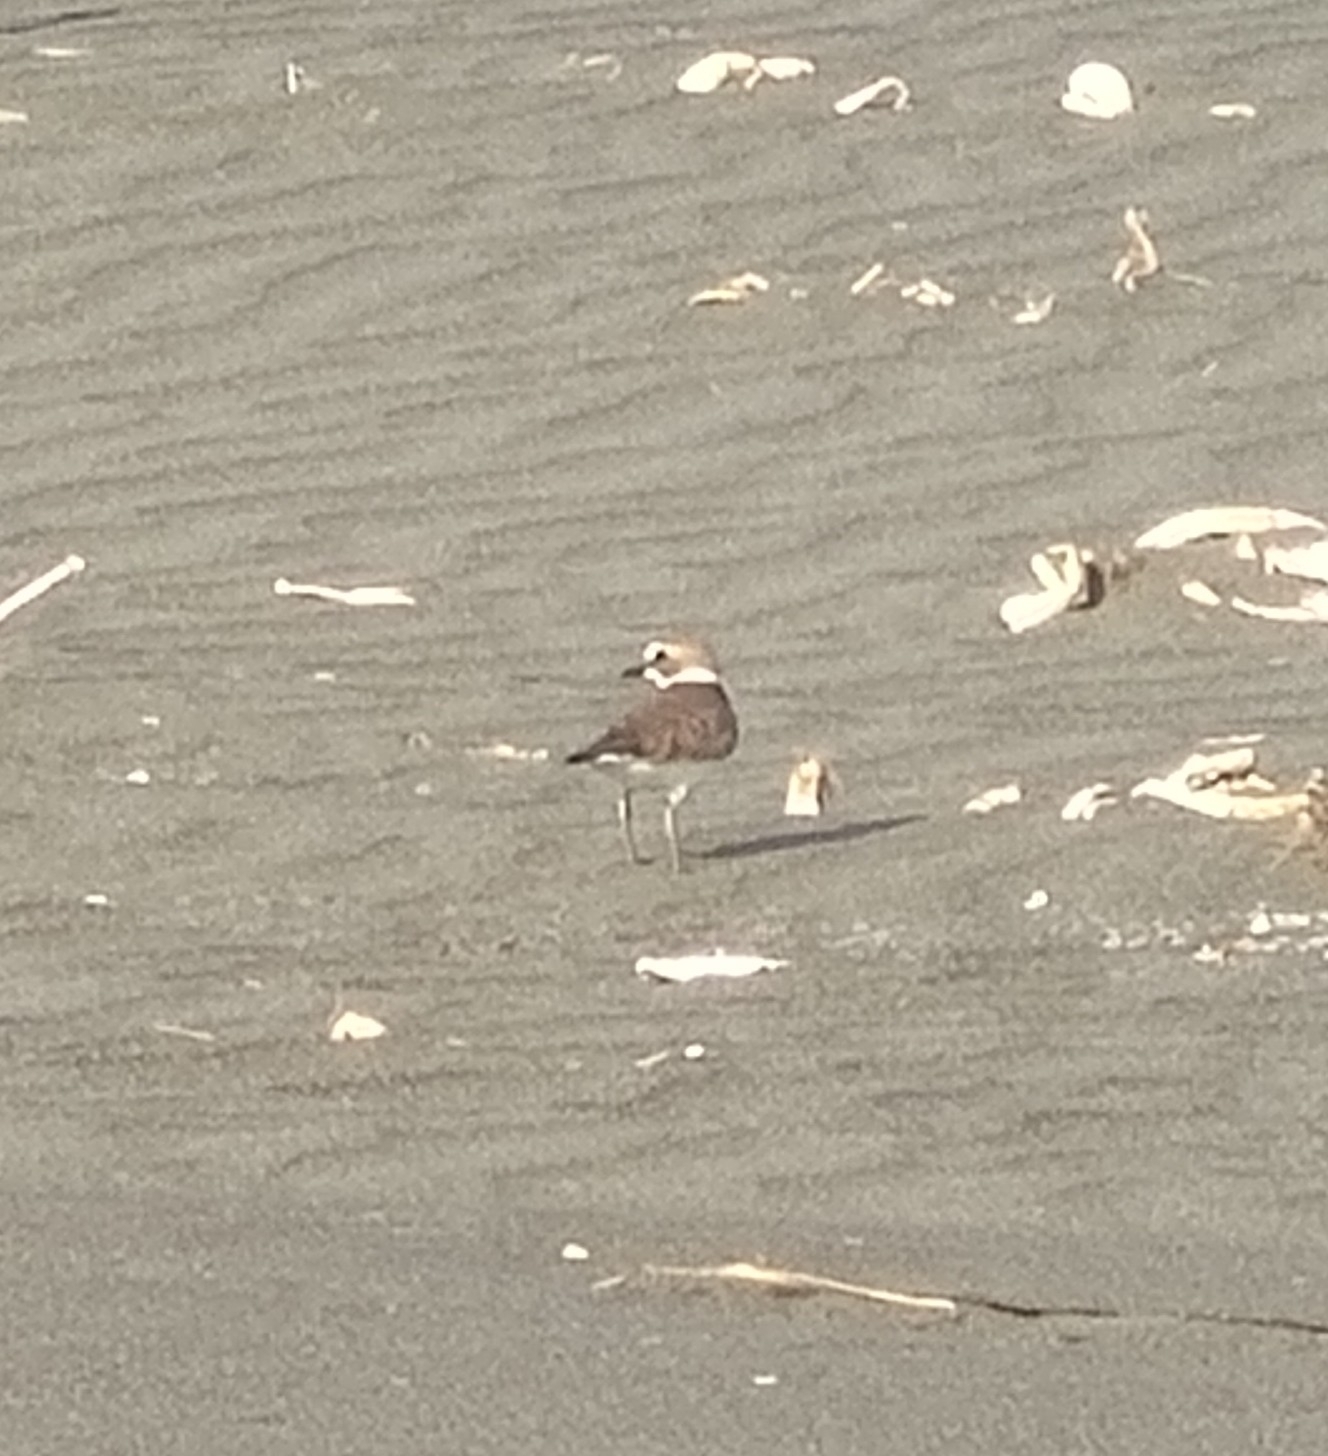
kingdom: Animalia
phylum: Chordata
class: Aves
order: Charadriiformes
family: Charadriidae
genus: Charadrius
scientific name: Charadrius alexandrinus
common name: Kentish plover
